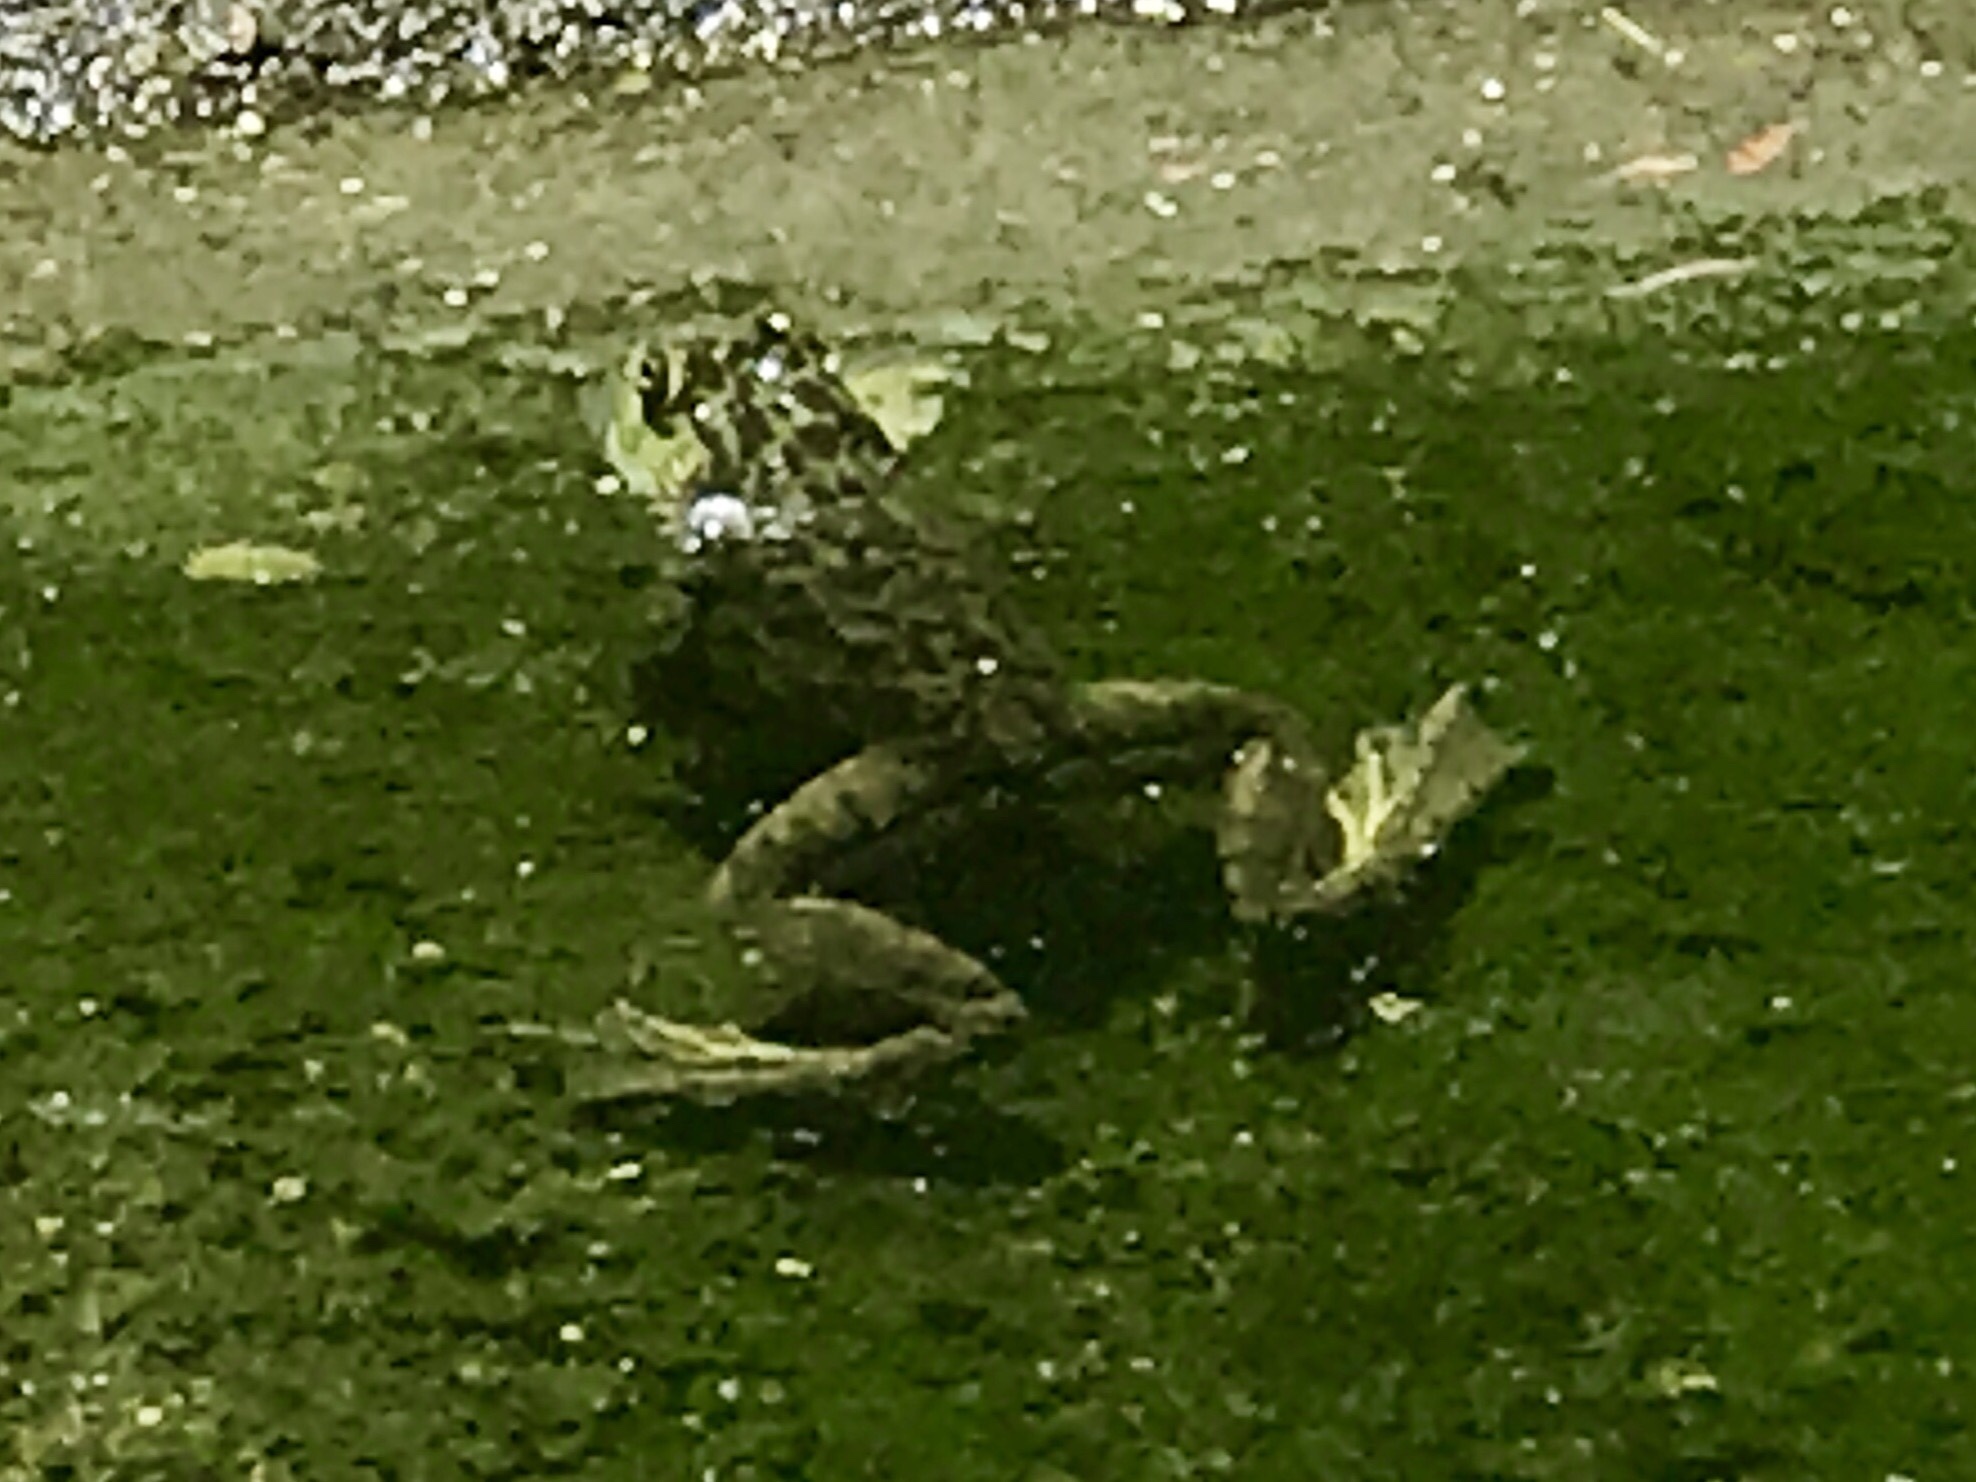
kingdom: Animalia
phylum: Chordata
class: Amphibia
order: Anura
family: Ranidae
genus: Lithobates
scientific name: Lithobates catesbeianus
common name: American bullfrog
